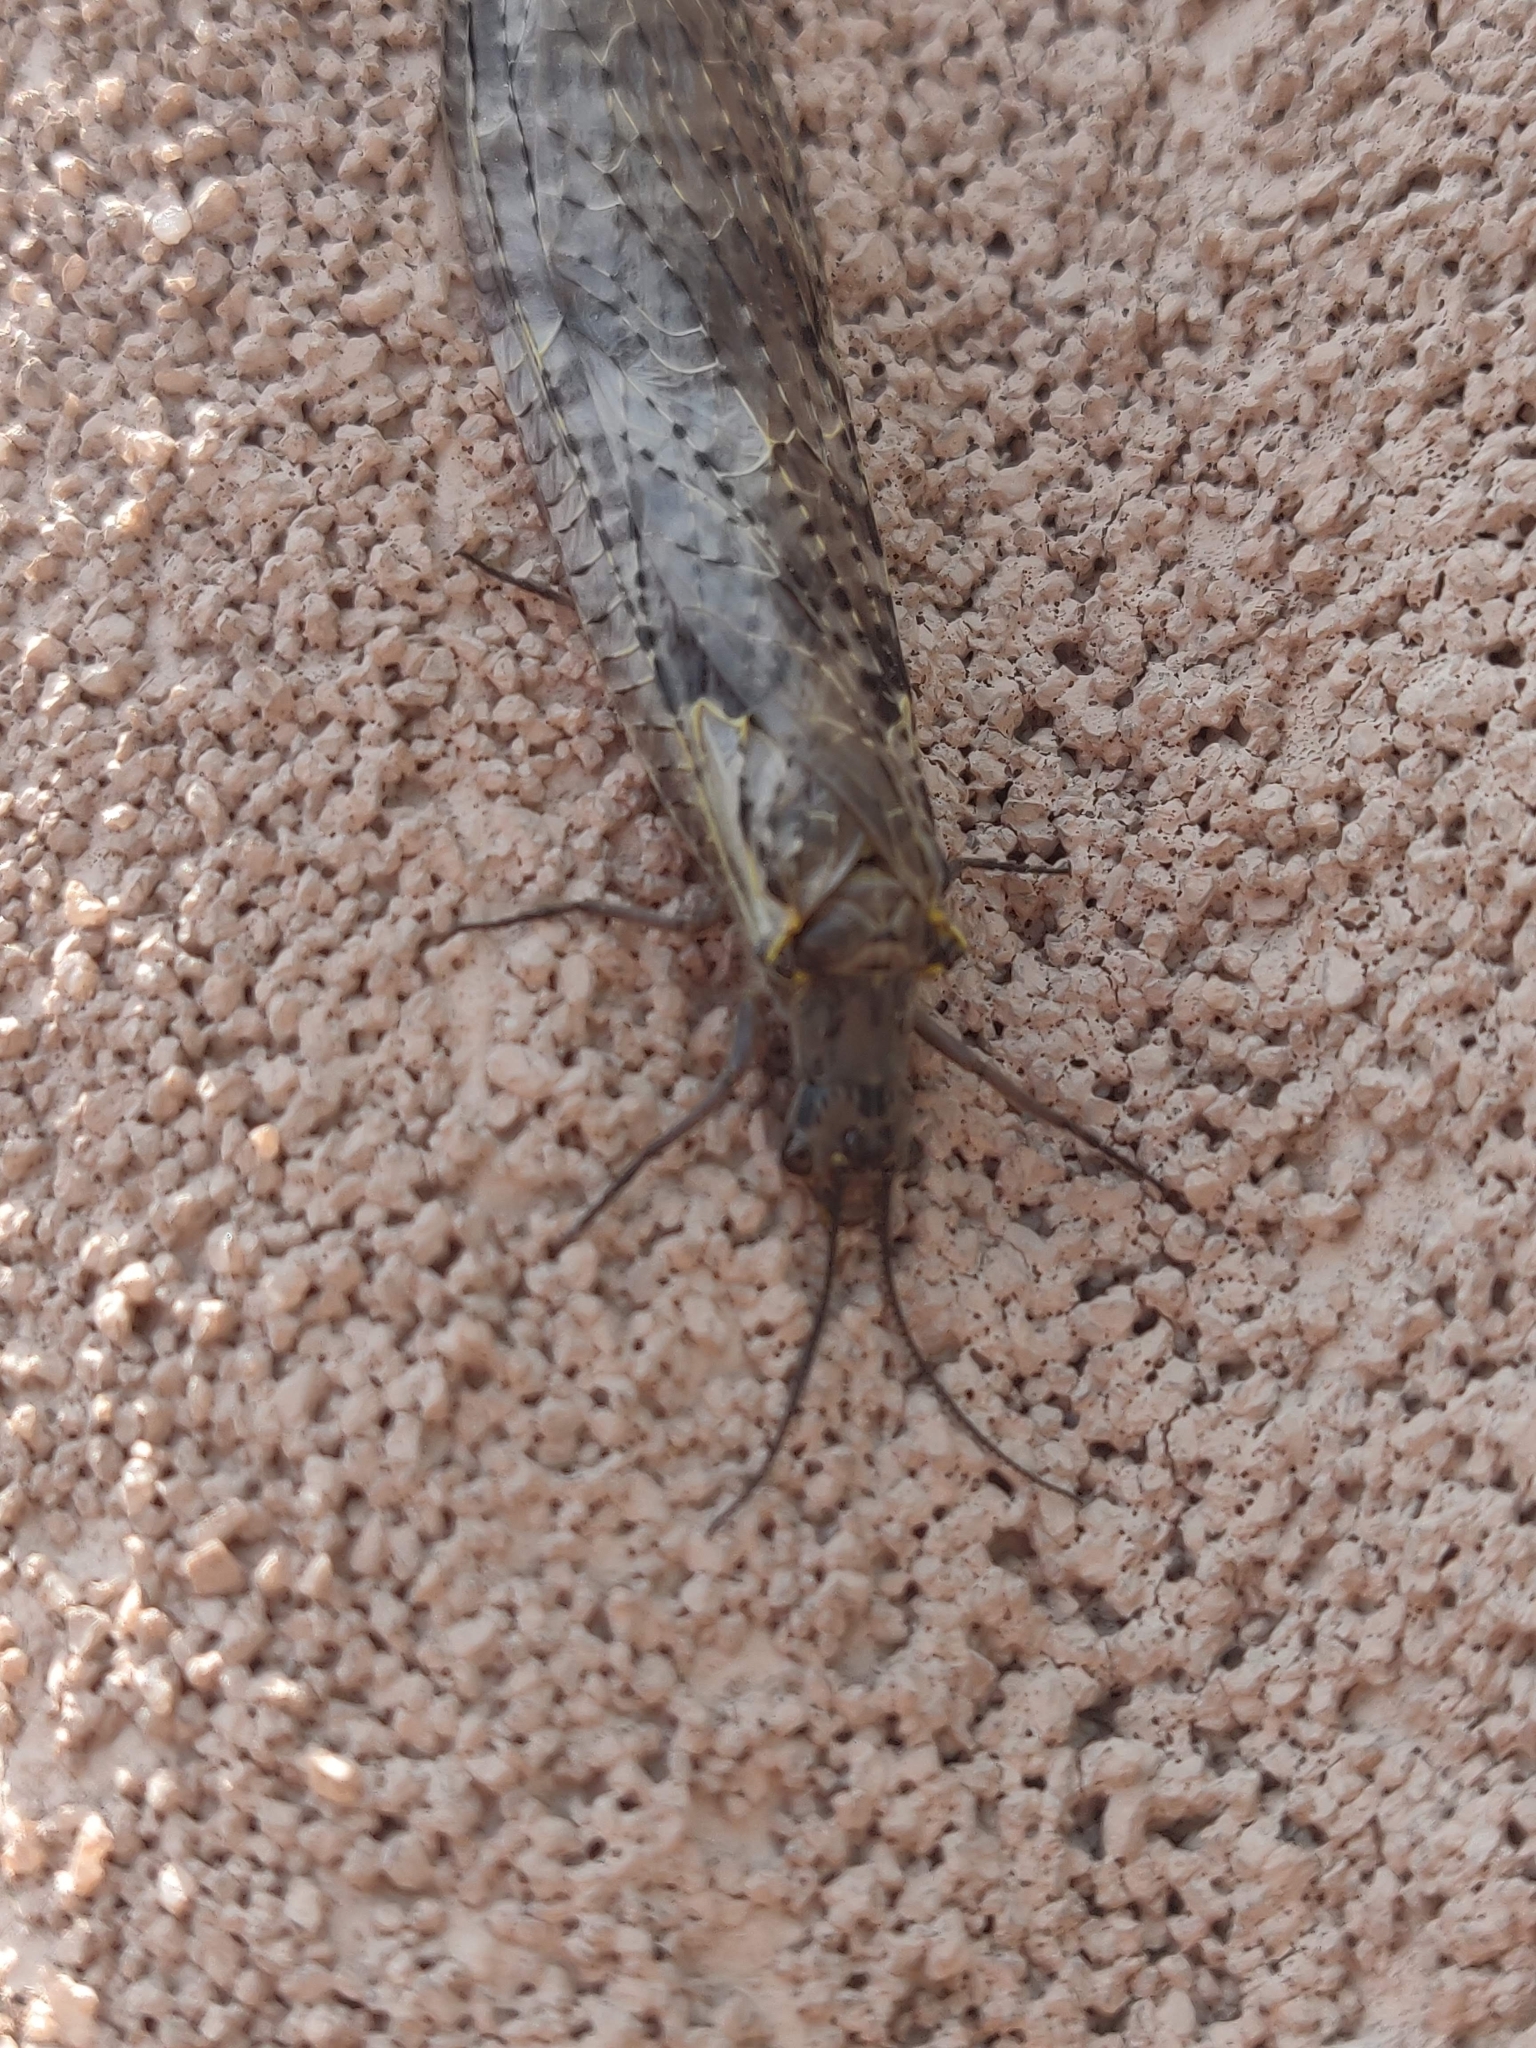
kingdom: Animalia
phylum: Arthropoda
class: Insecta
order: Megaloptera
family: Corydalidae
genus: Chauliodes
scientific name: Chauliodes rastricornis
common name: Spring fishfly
